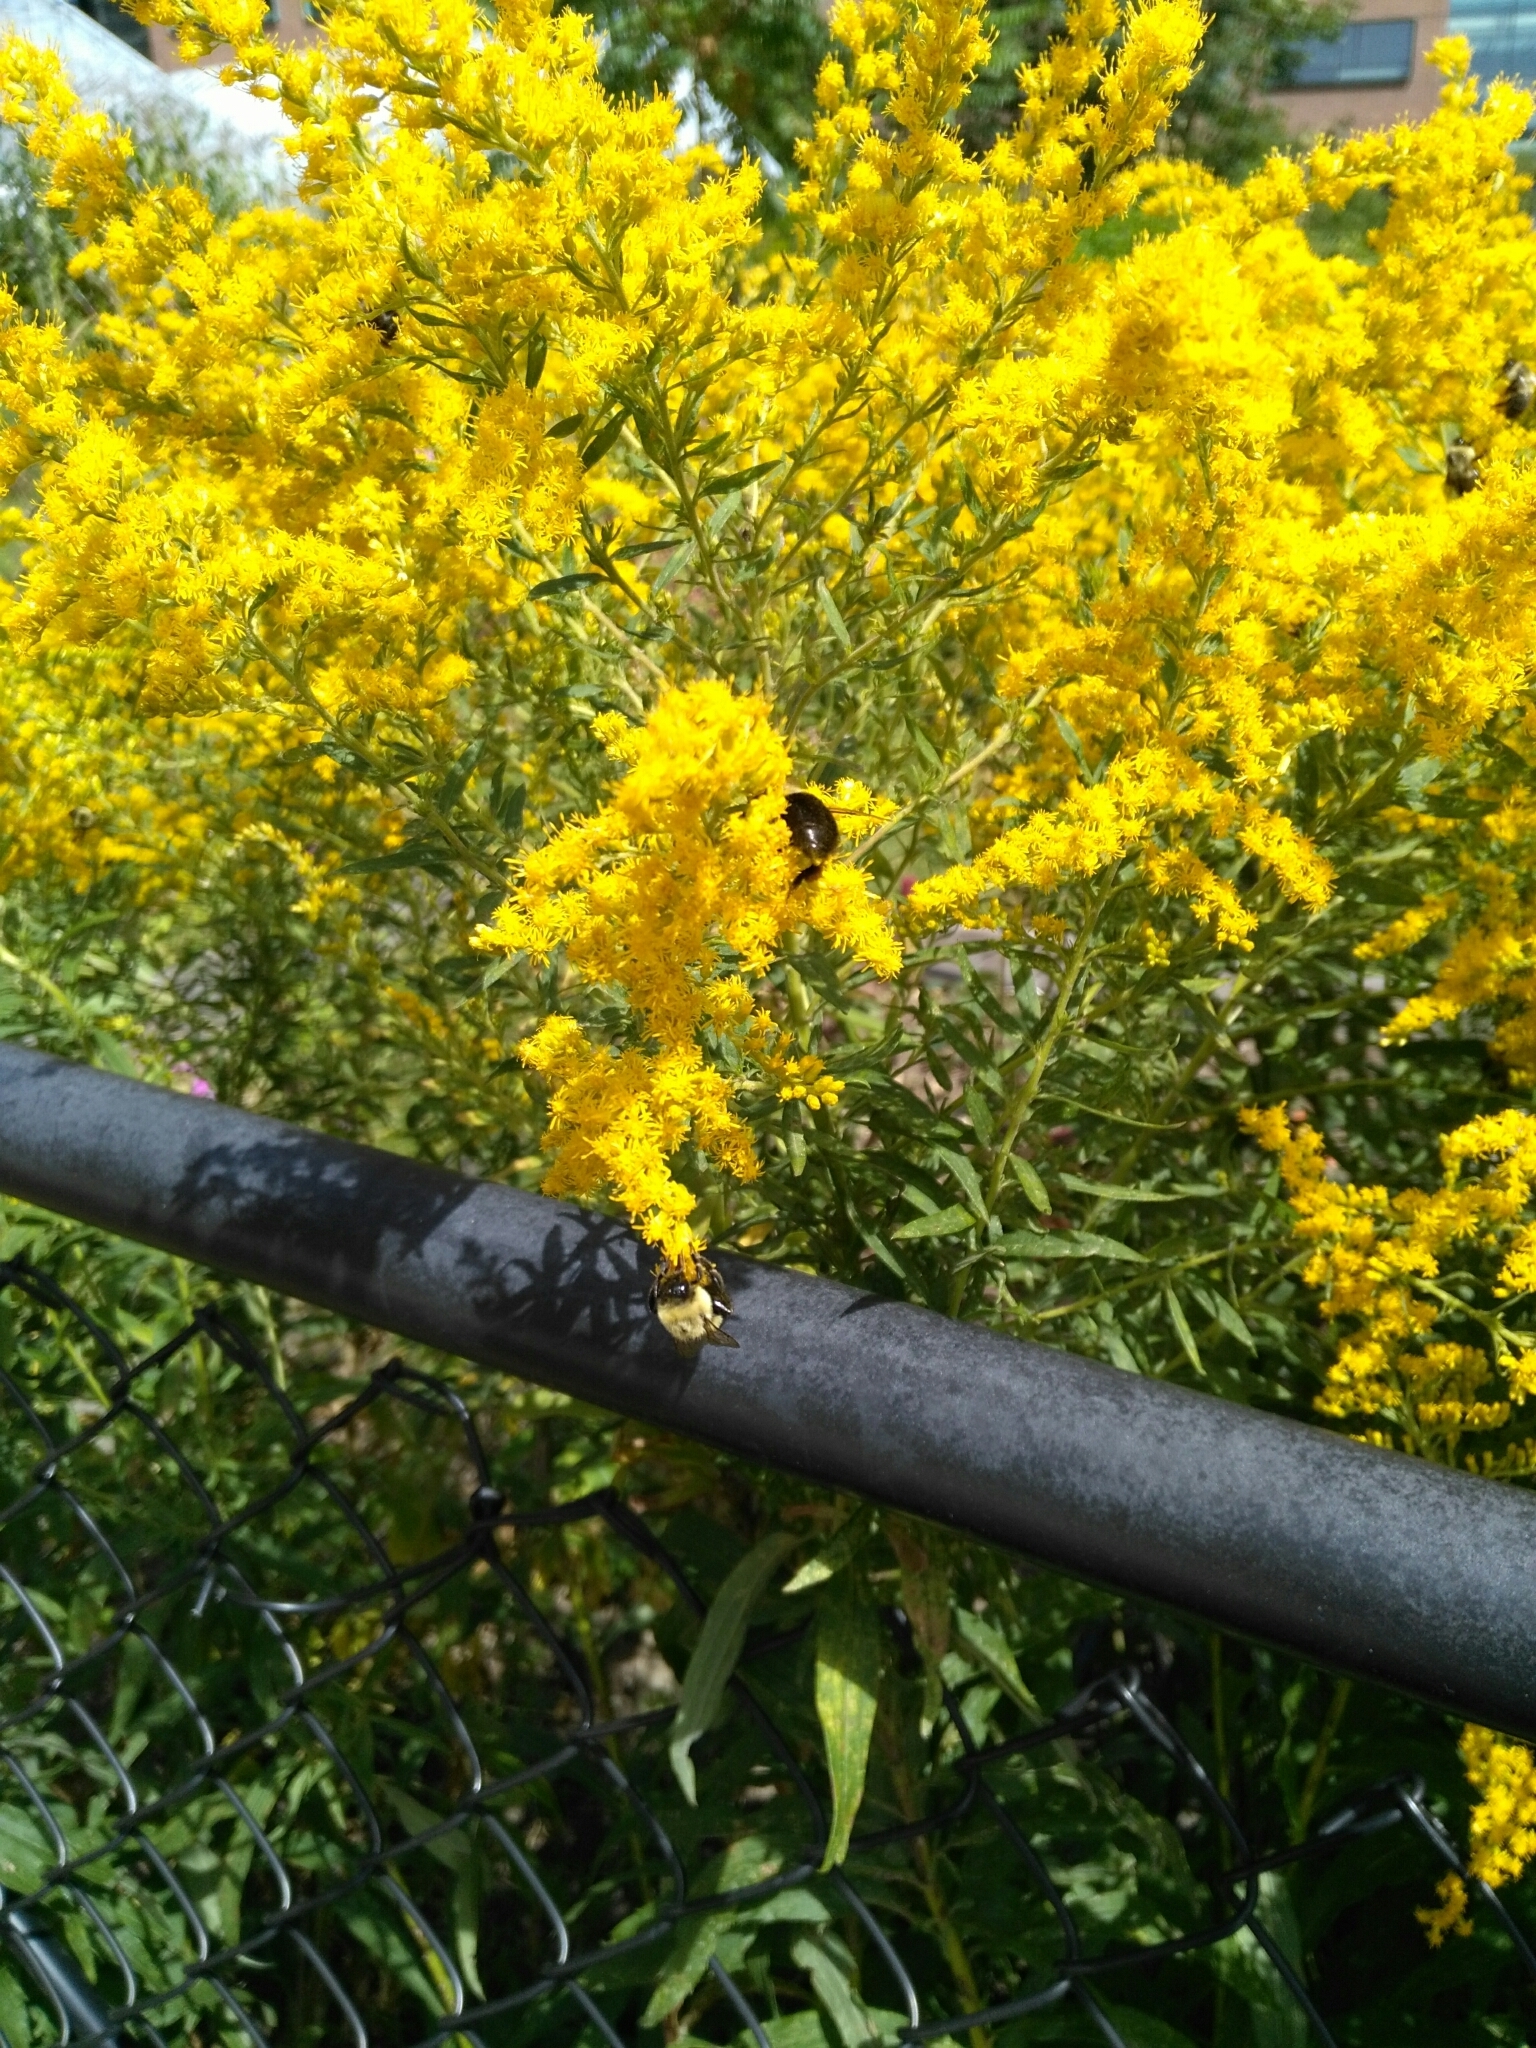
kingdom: Animalia
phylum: Arthropoda
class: Insecta
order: Hymenoptera
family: Apidae
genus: Bombus
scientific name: Bombus impatiens
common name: Common eastern bumble bee
